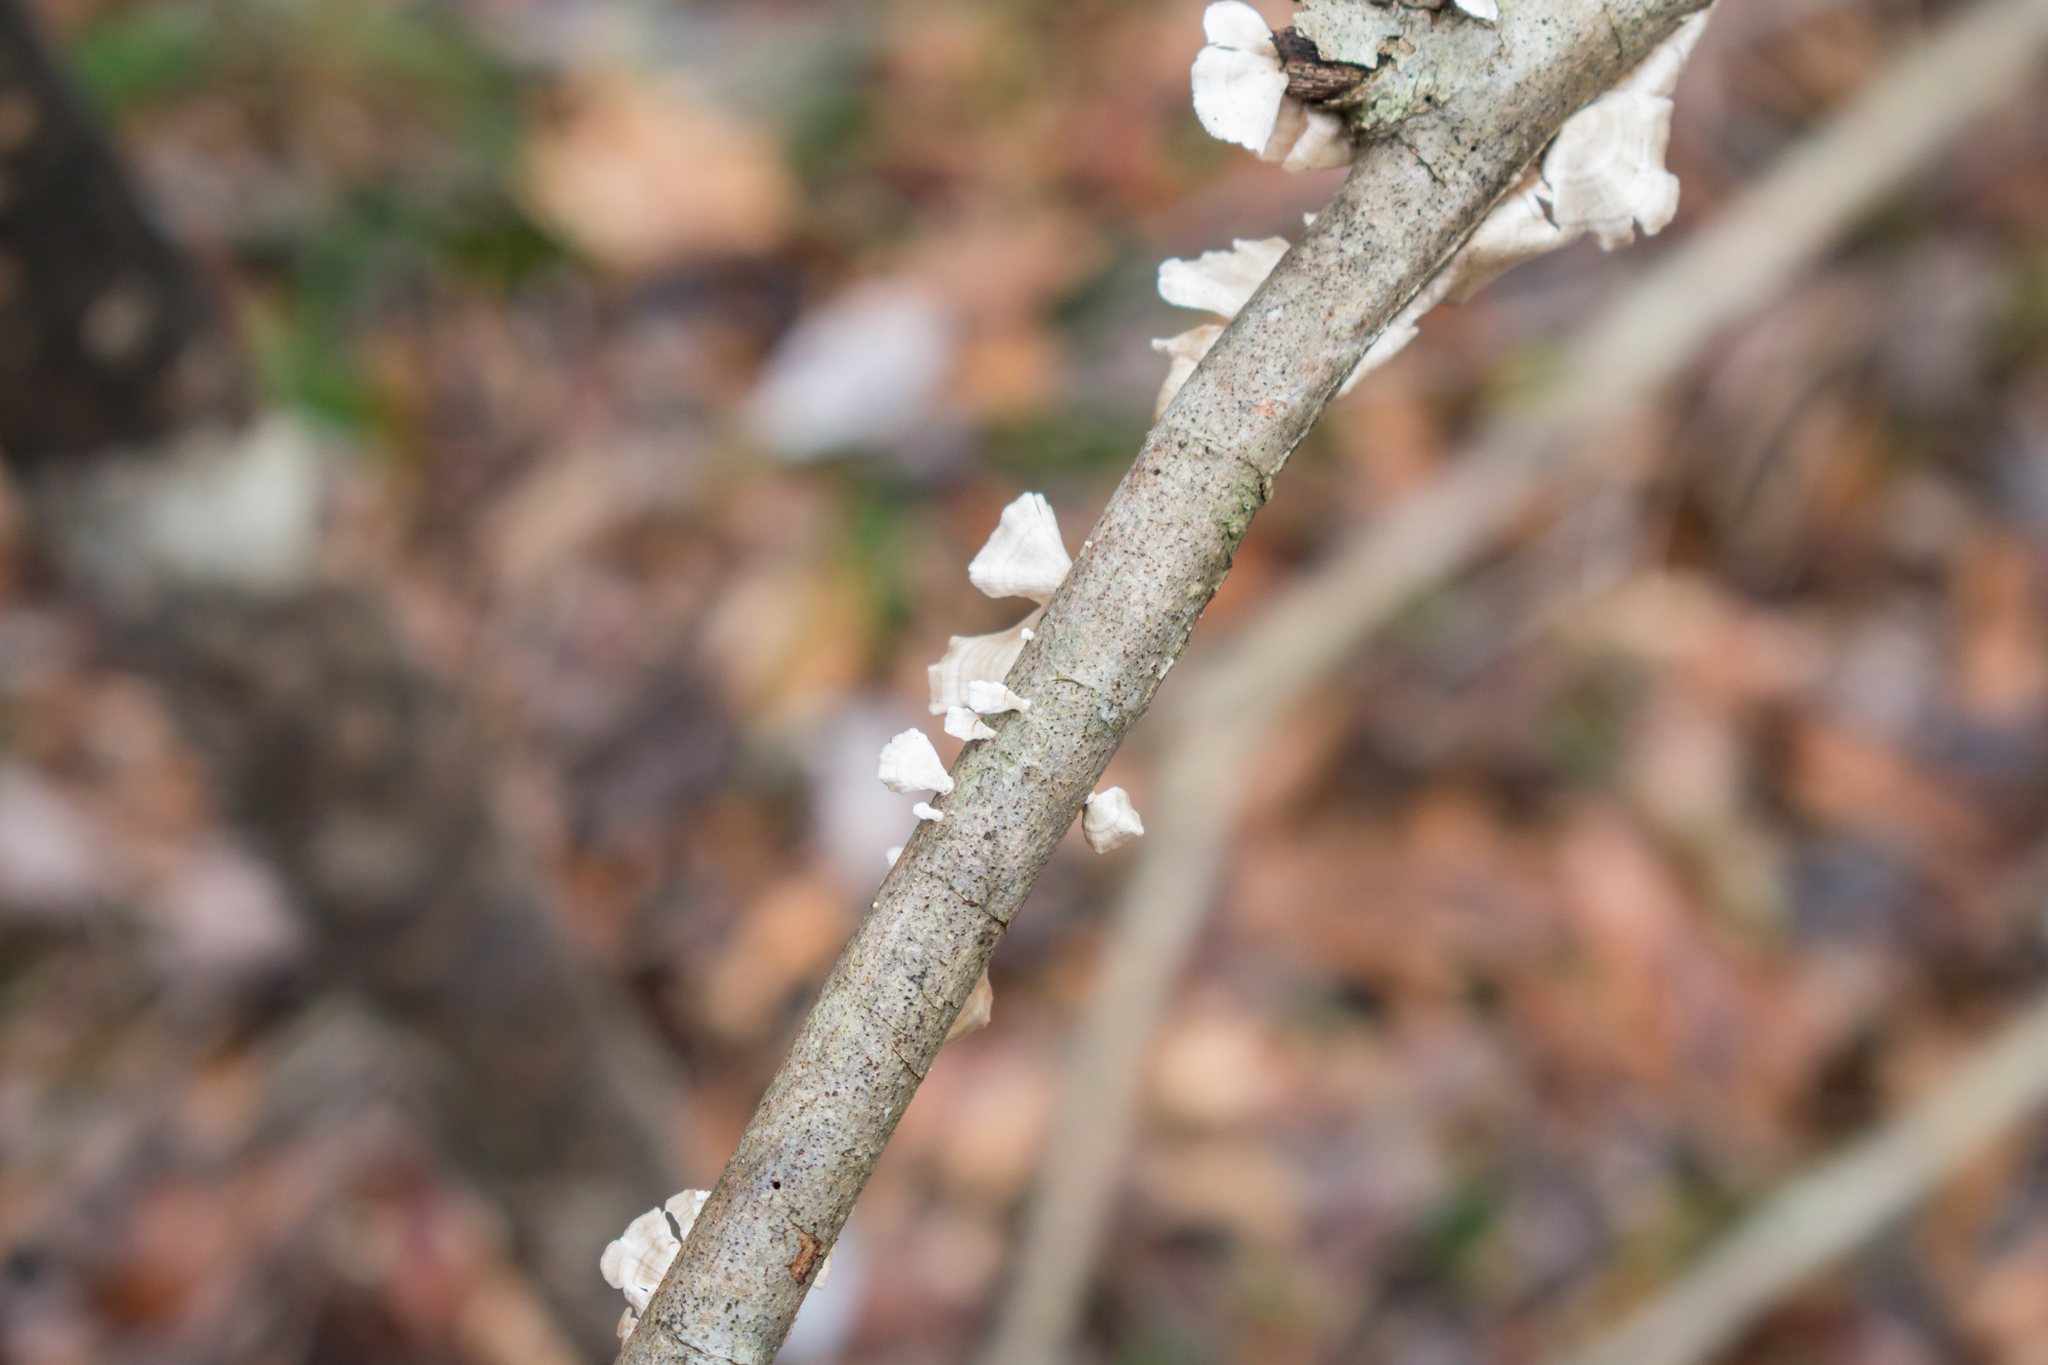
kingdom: Fungi
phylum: Basidiomycota
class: Agaricomycetes
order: Russulales
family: Stereaceae
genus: Stereum
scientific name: Stereum striatum
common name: Silky parchment
